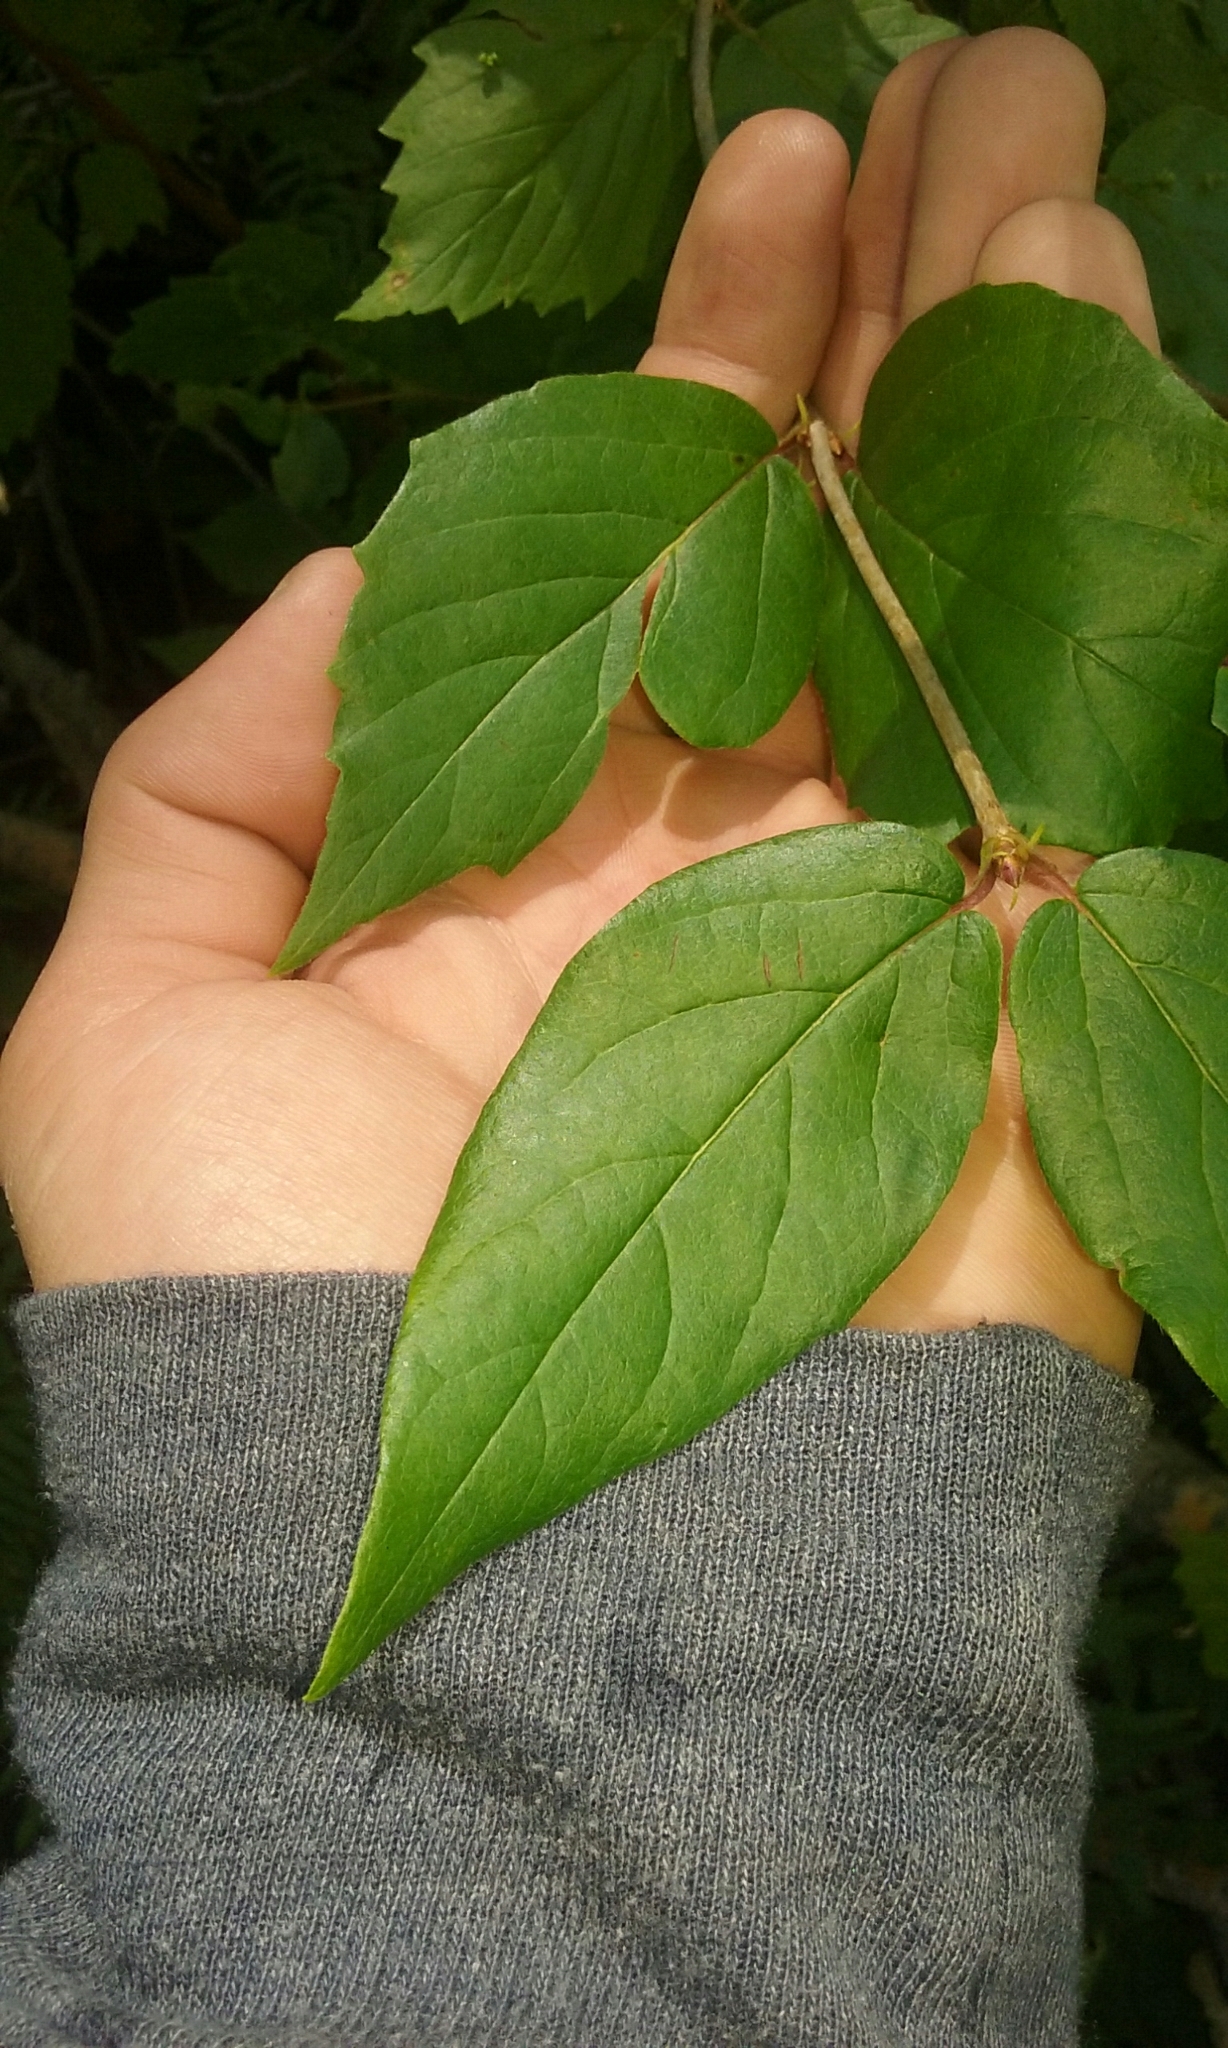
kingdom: Plantae
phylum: Tracheophyta
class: Magnoliopsida
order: Dipsacales
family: Viburnaceae
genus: Viburnum
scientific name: Viburnum rafinesqueanum
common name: Downy arrow-wood
